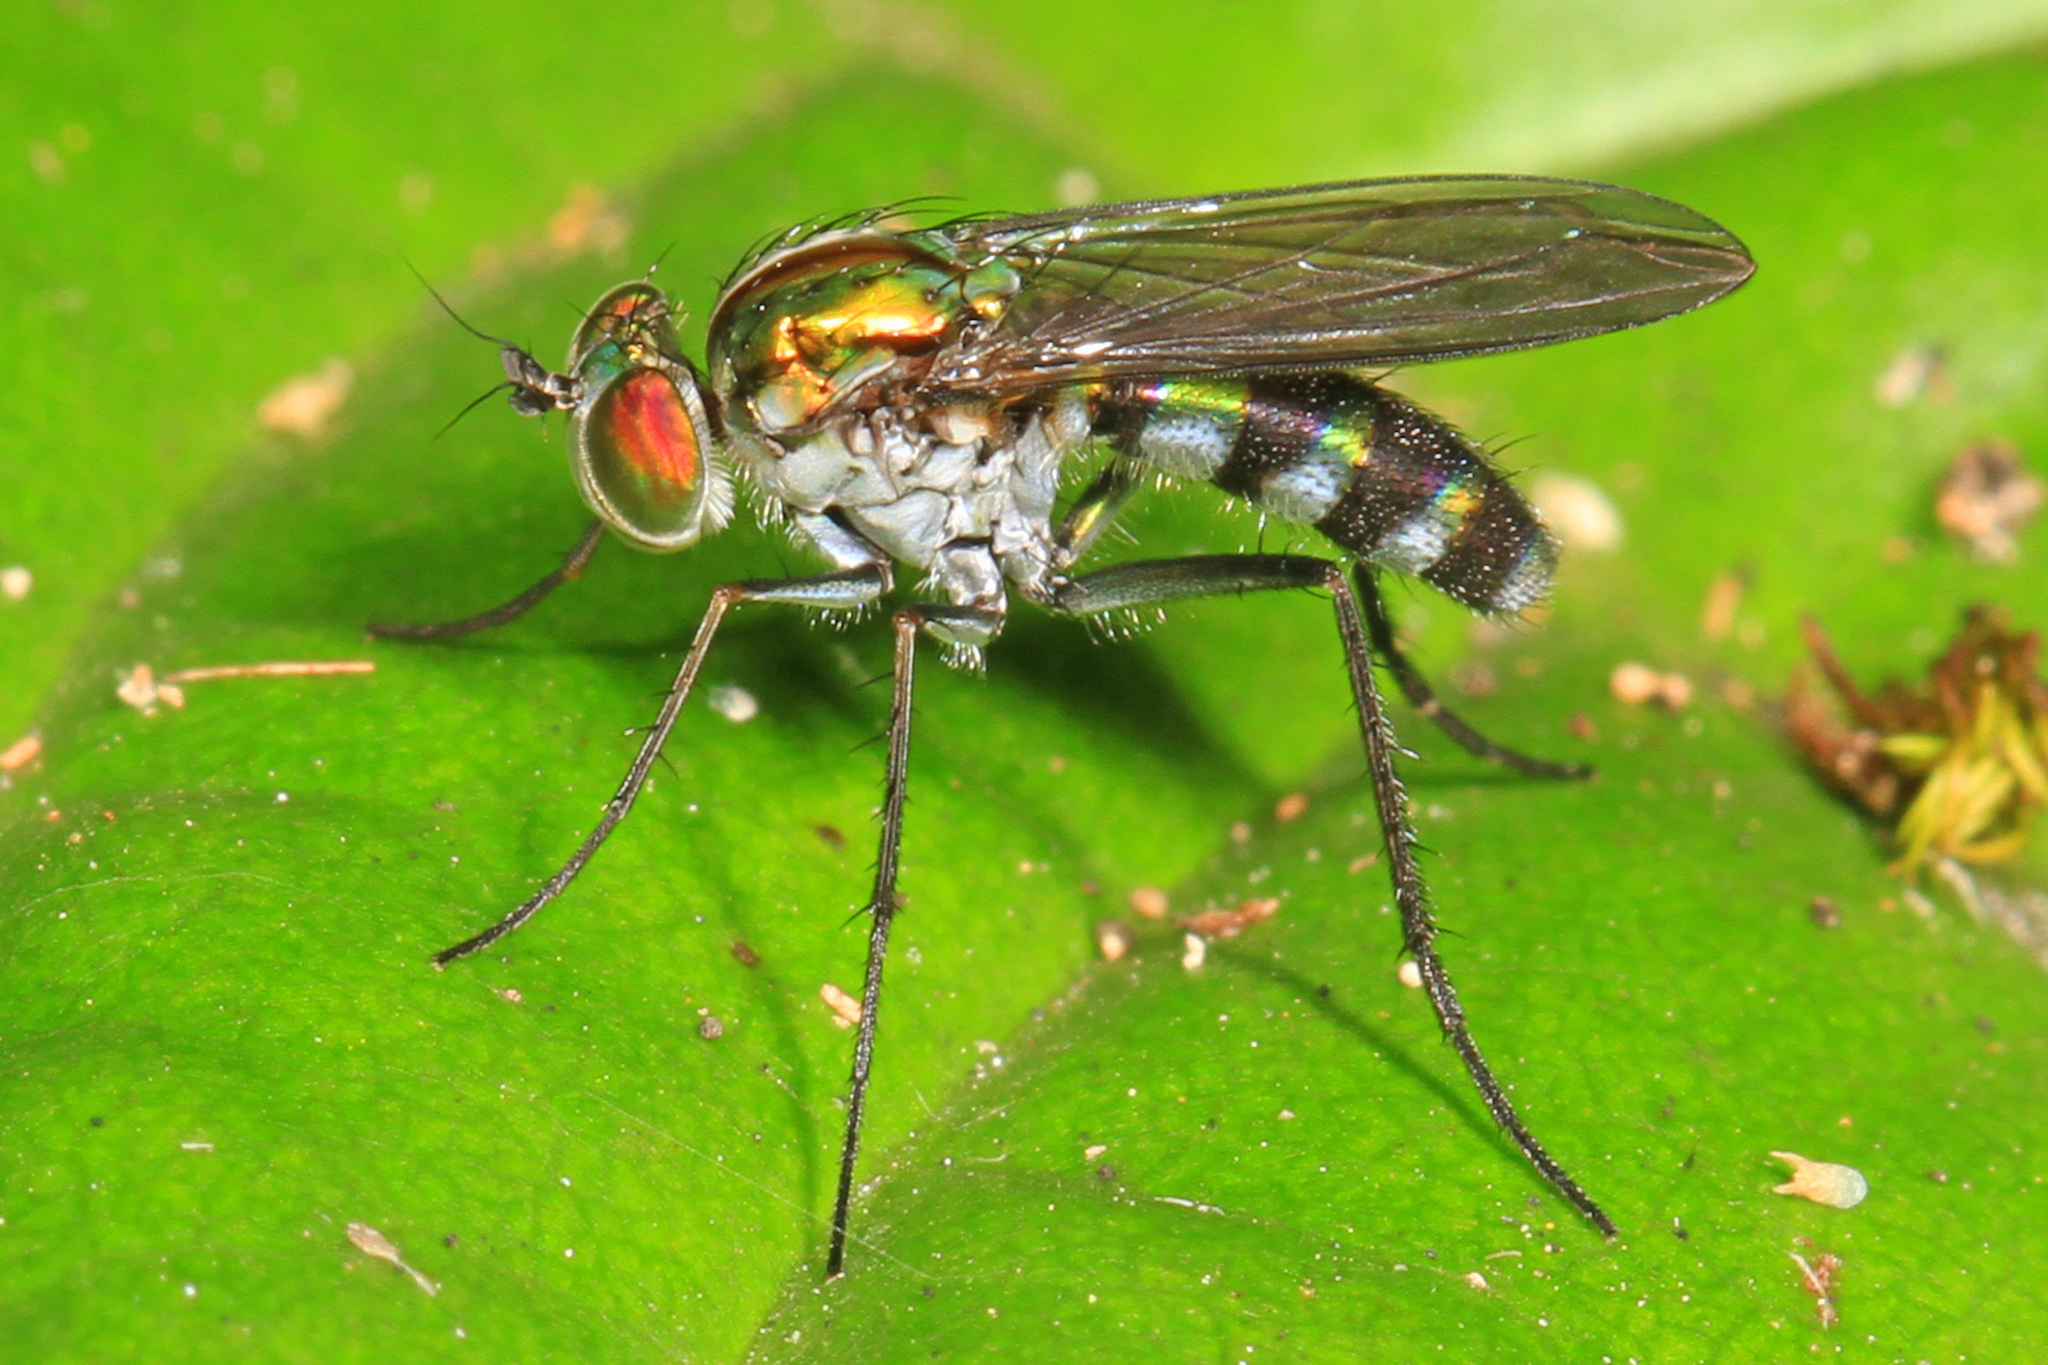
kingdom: Animalia
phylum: Arthropoda
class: Insecta
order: Diptera
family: Dolichopodidae
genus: Plagioneurus
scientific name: Plagioneurus univittatus
